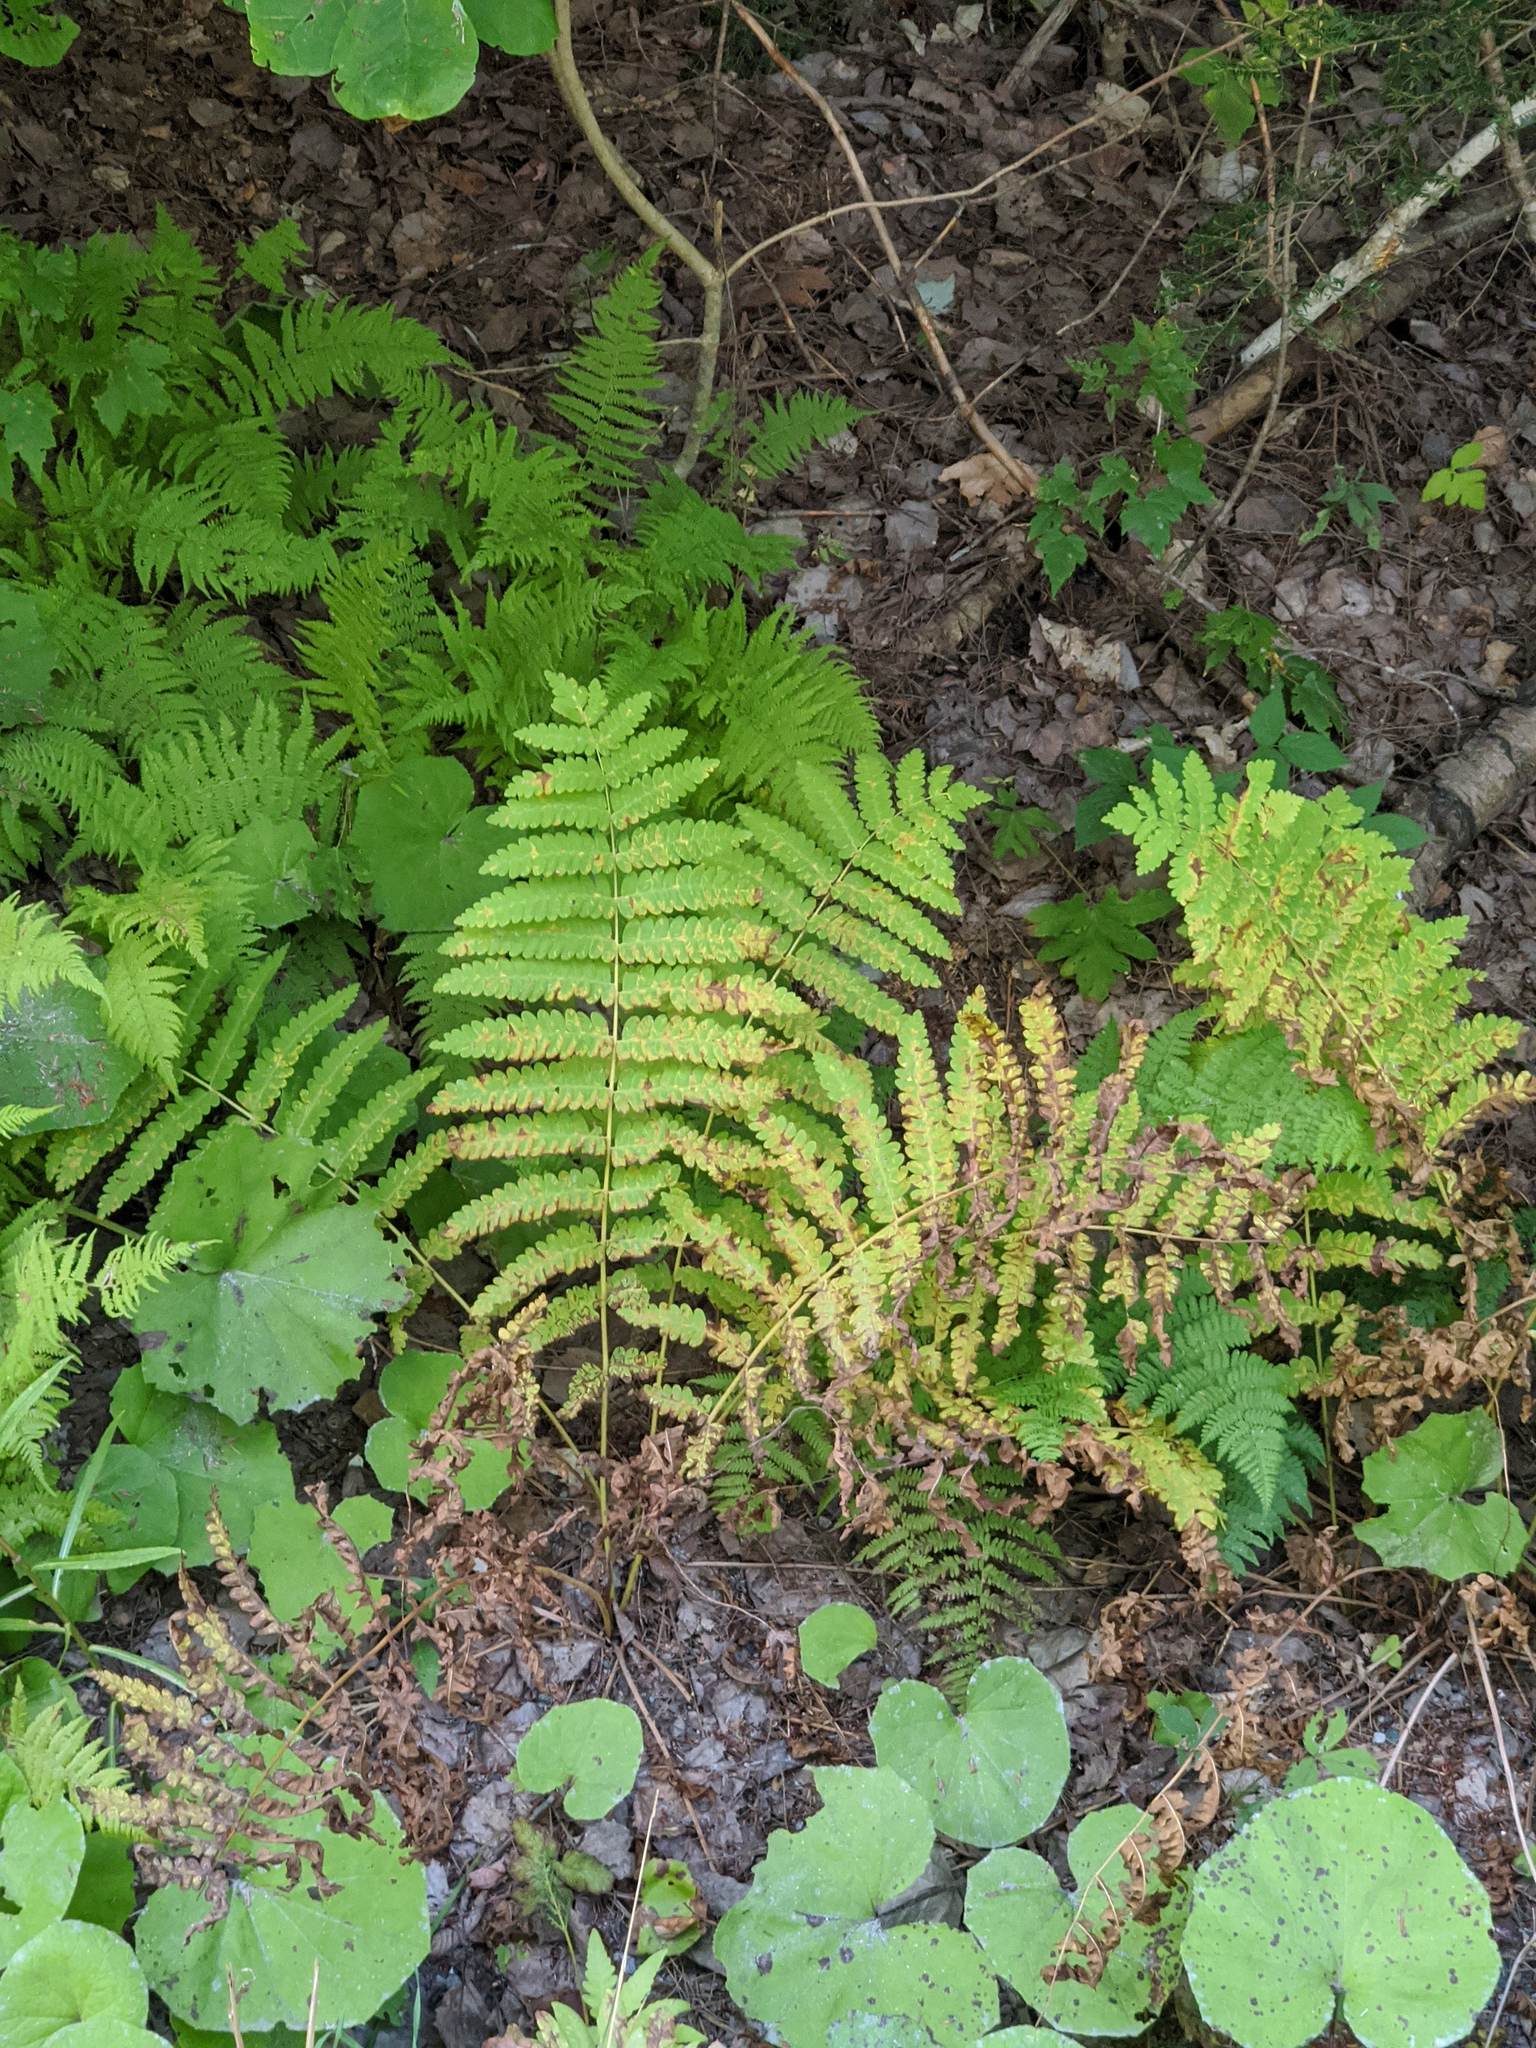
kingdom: Plantae
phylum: Tracheophyta
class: Polypodiopsida
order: Osmundales
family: Osmundaceae
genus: Claytosmunda
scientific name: Claytosmunda claytoniana
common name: Clayton's fern
